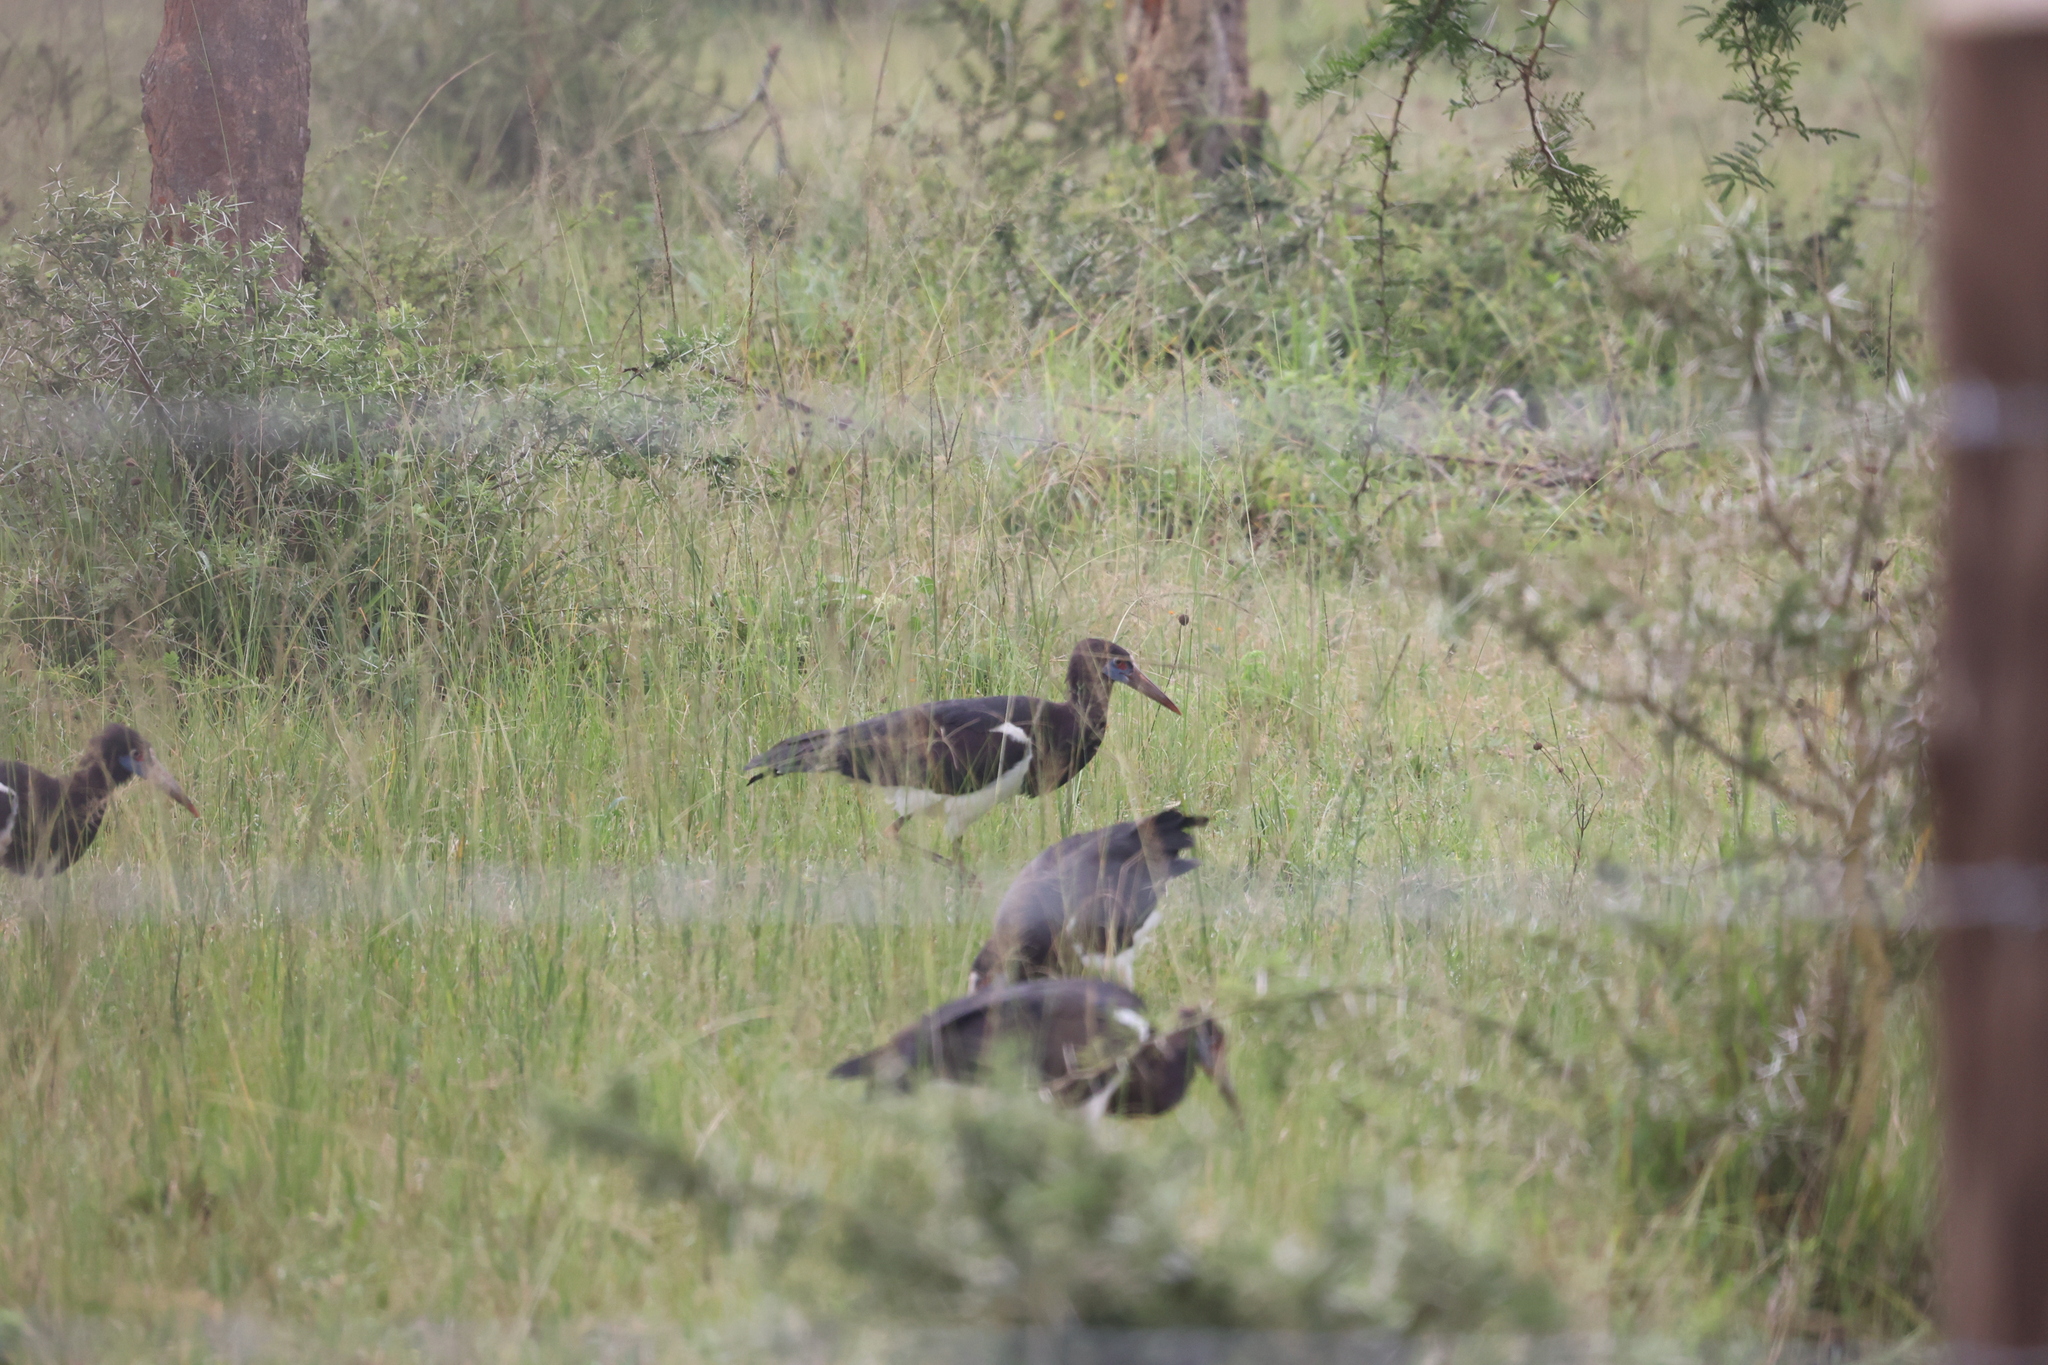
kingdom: Animalia
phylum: Chordata
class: Aves
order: Ciconiiformes
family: Ciconiidae
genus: Ciconia
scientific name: Ciconia abdimii
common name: Abdim's stork
